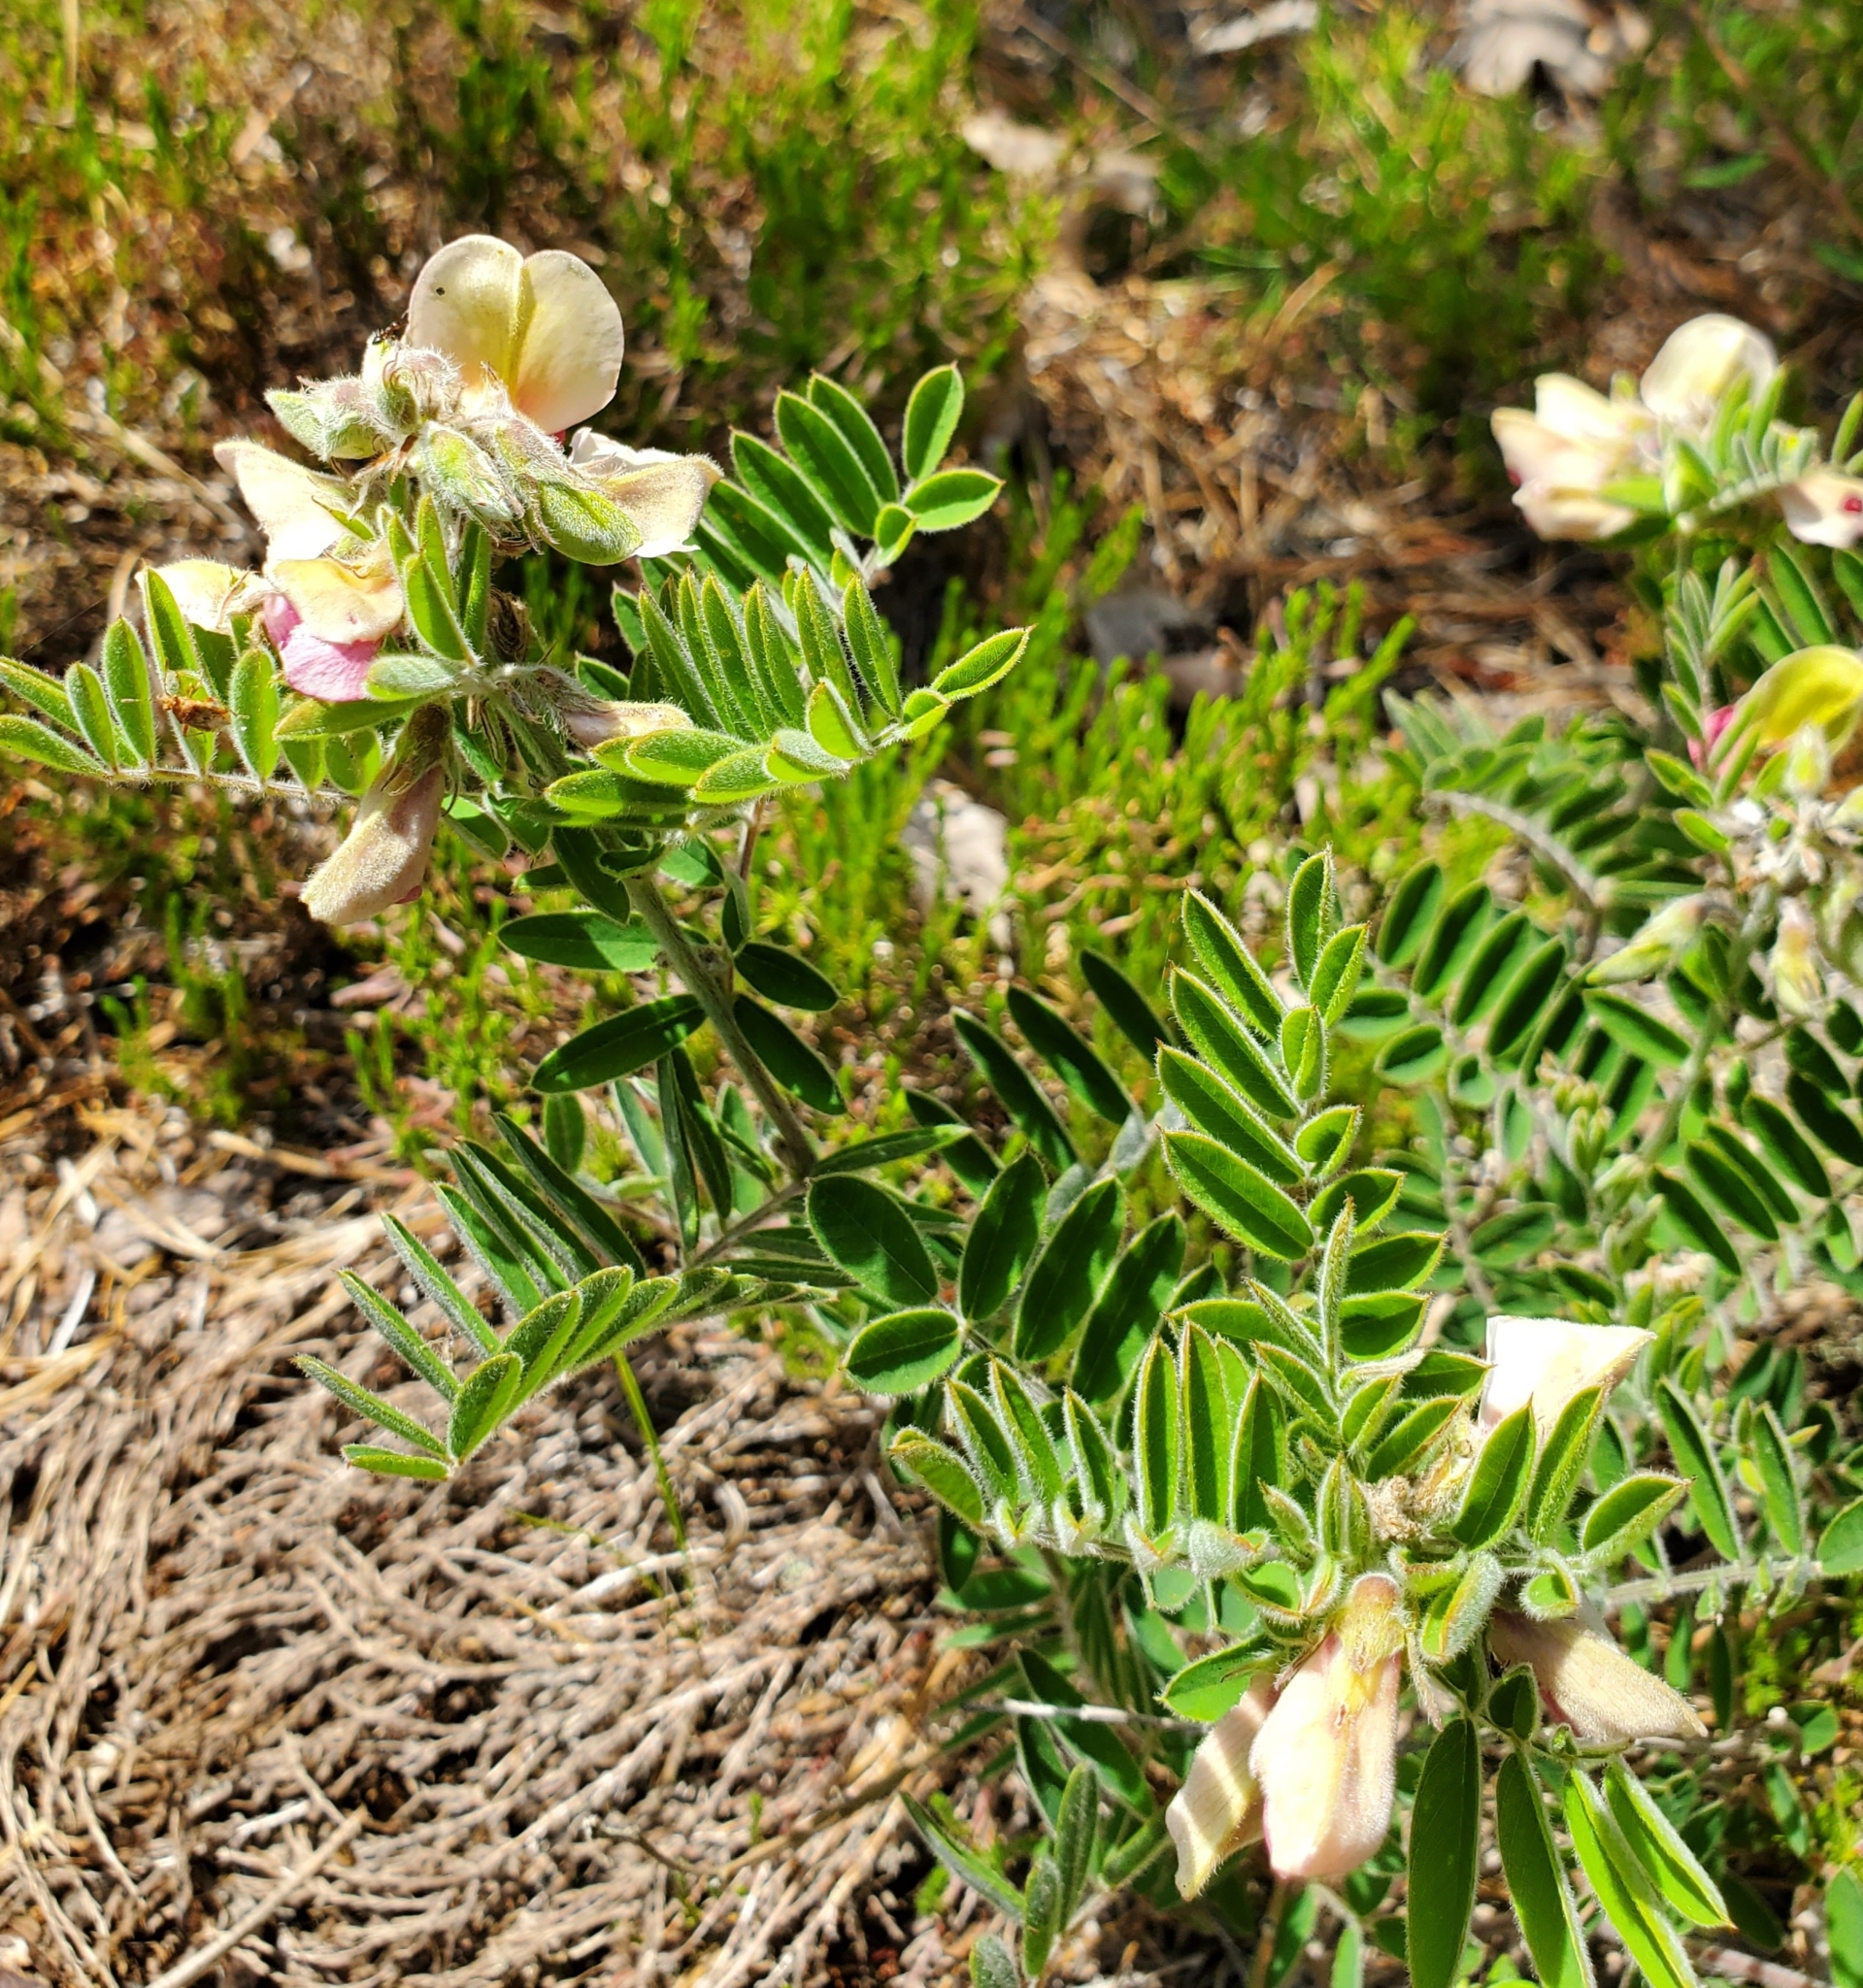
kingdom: Plantae
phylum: Tracheophyta
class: Magnoliopsida
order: Fabales
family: Fabaceae
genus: Tephrosia
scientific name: Tephrosia virginiana
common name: Rabbit-pea
